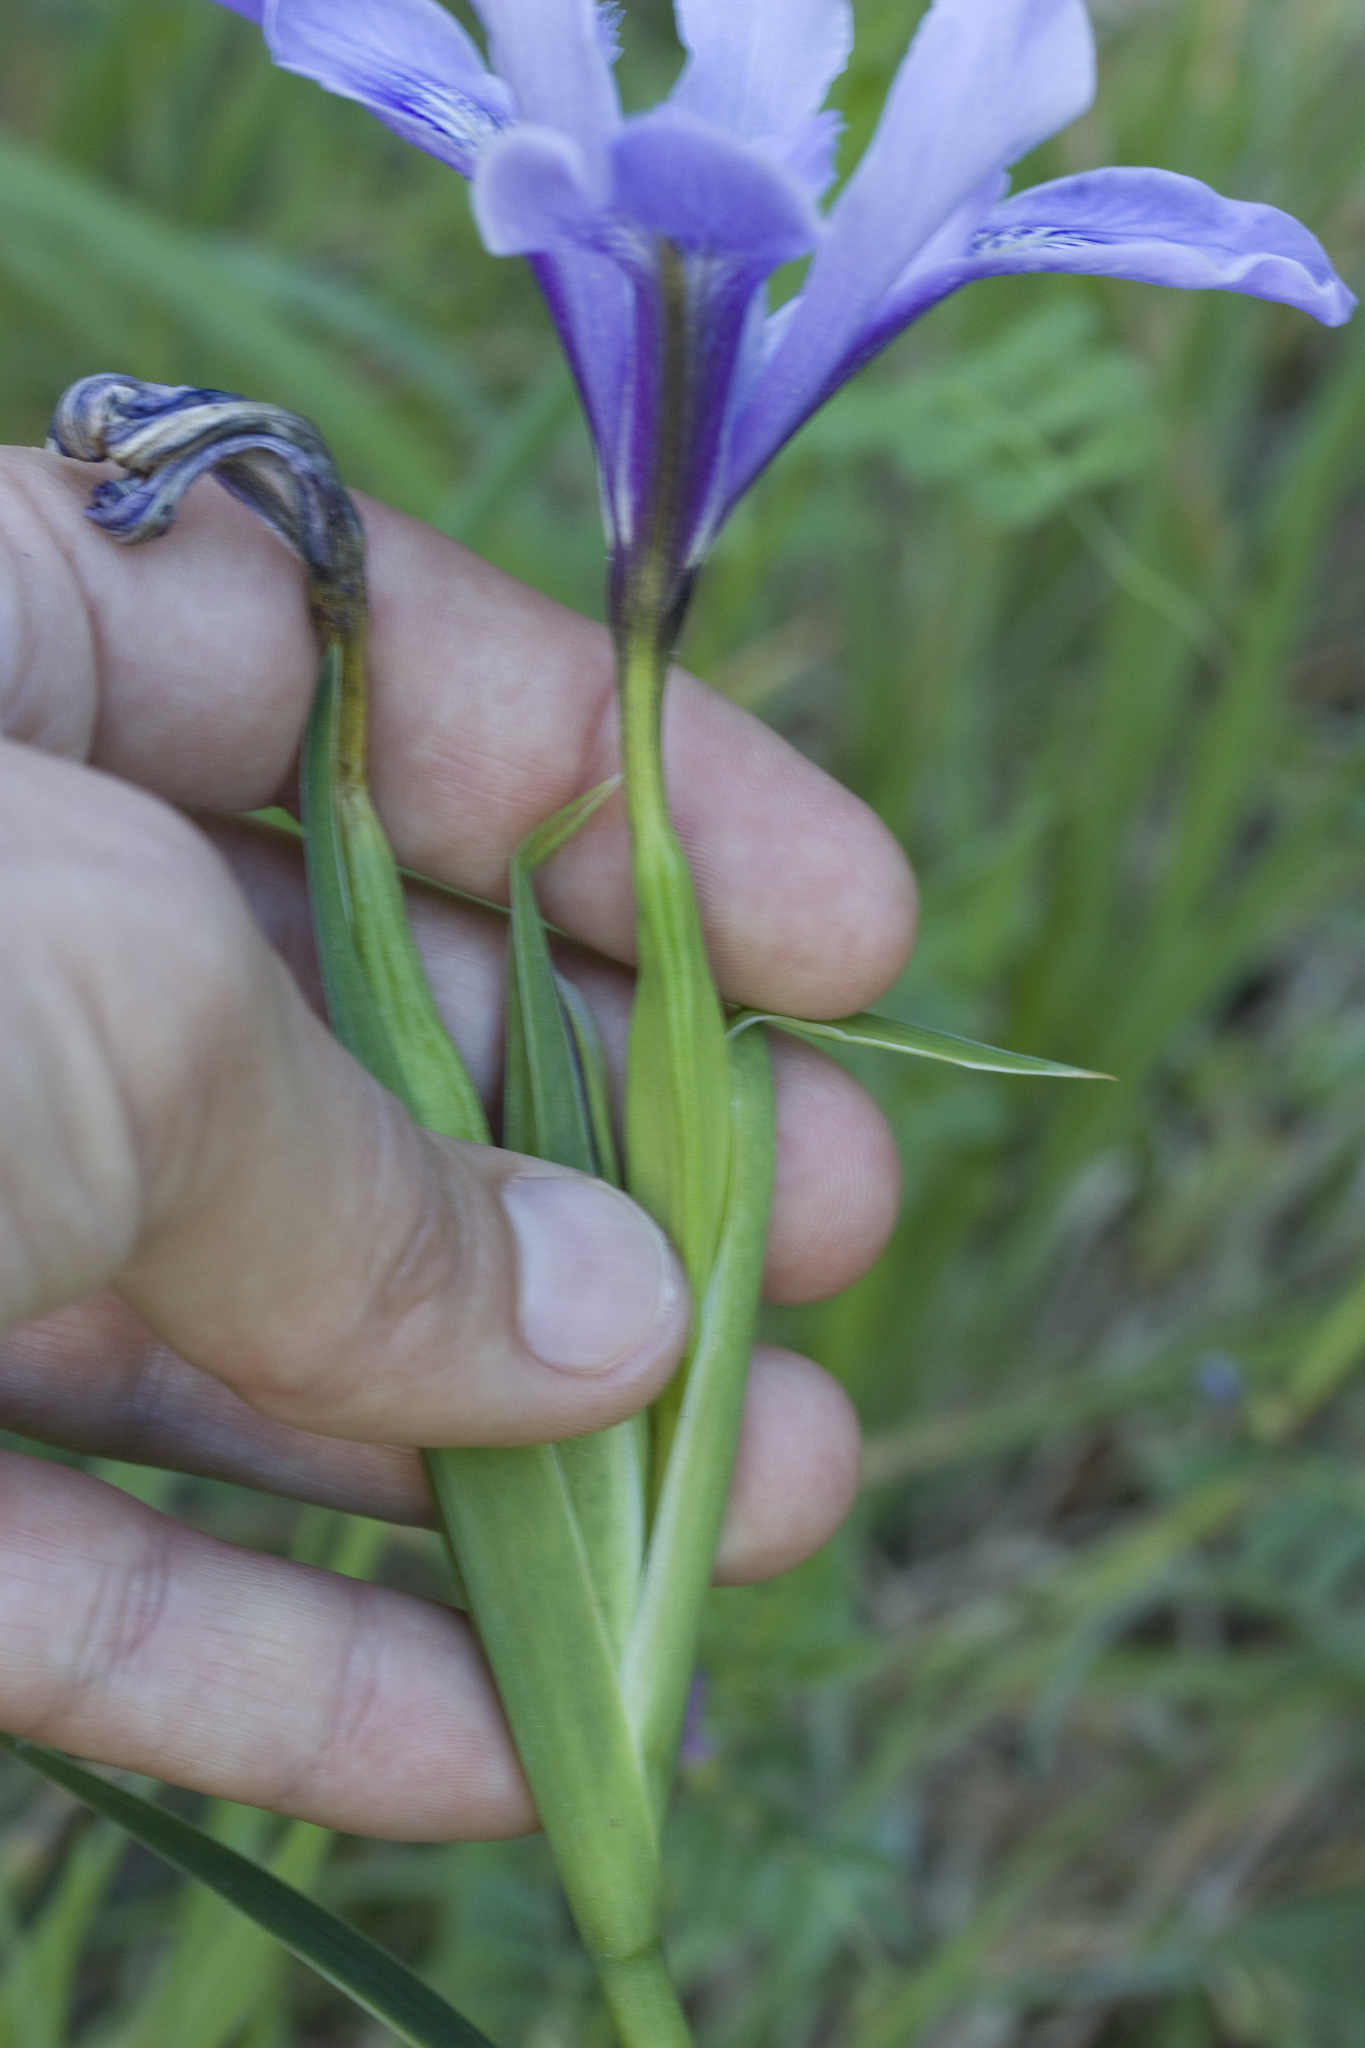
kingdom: Plantae
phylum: Tracheophyta
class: Liliopsida
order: Asparagales
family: Iridaceae
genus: Iris
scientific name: Iris douglasiana
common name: Marin iris
